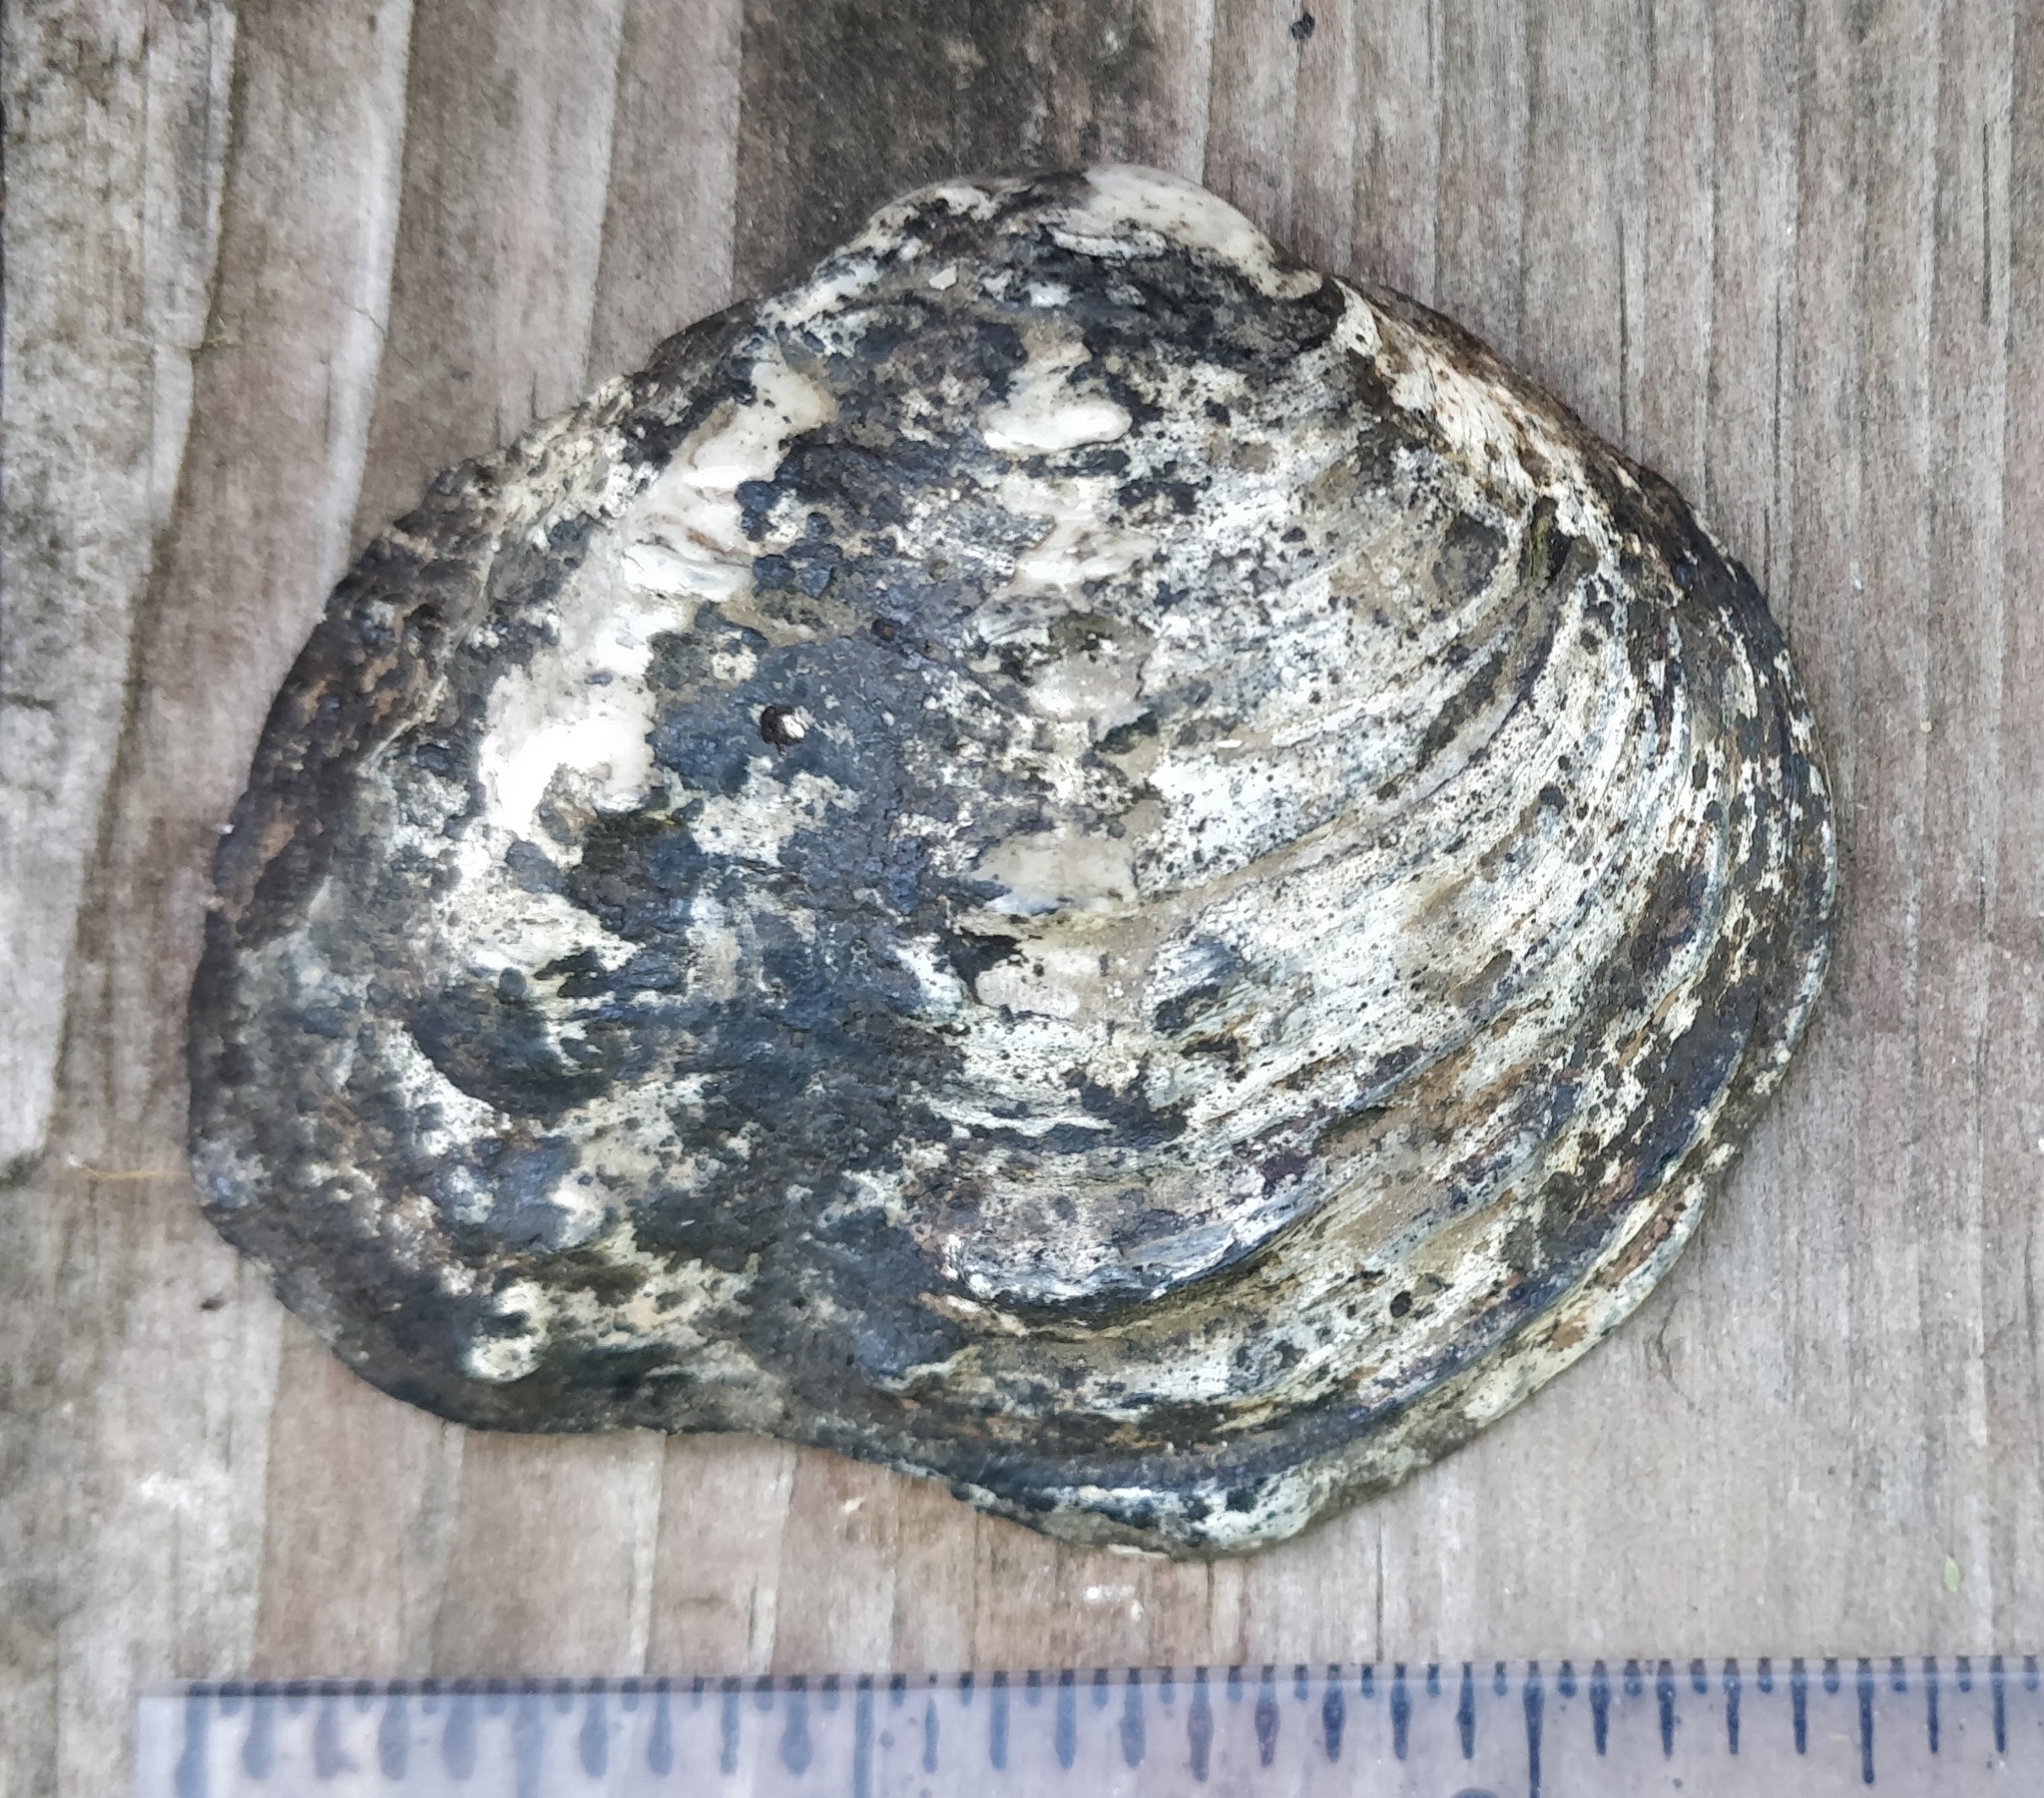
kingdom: Animalia
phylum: Mollusca
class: Bivalvia
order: Unionida
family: Unionidae
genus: Tritogonia
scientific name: Tritogonia nobilis
